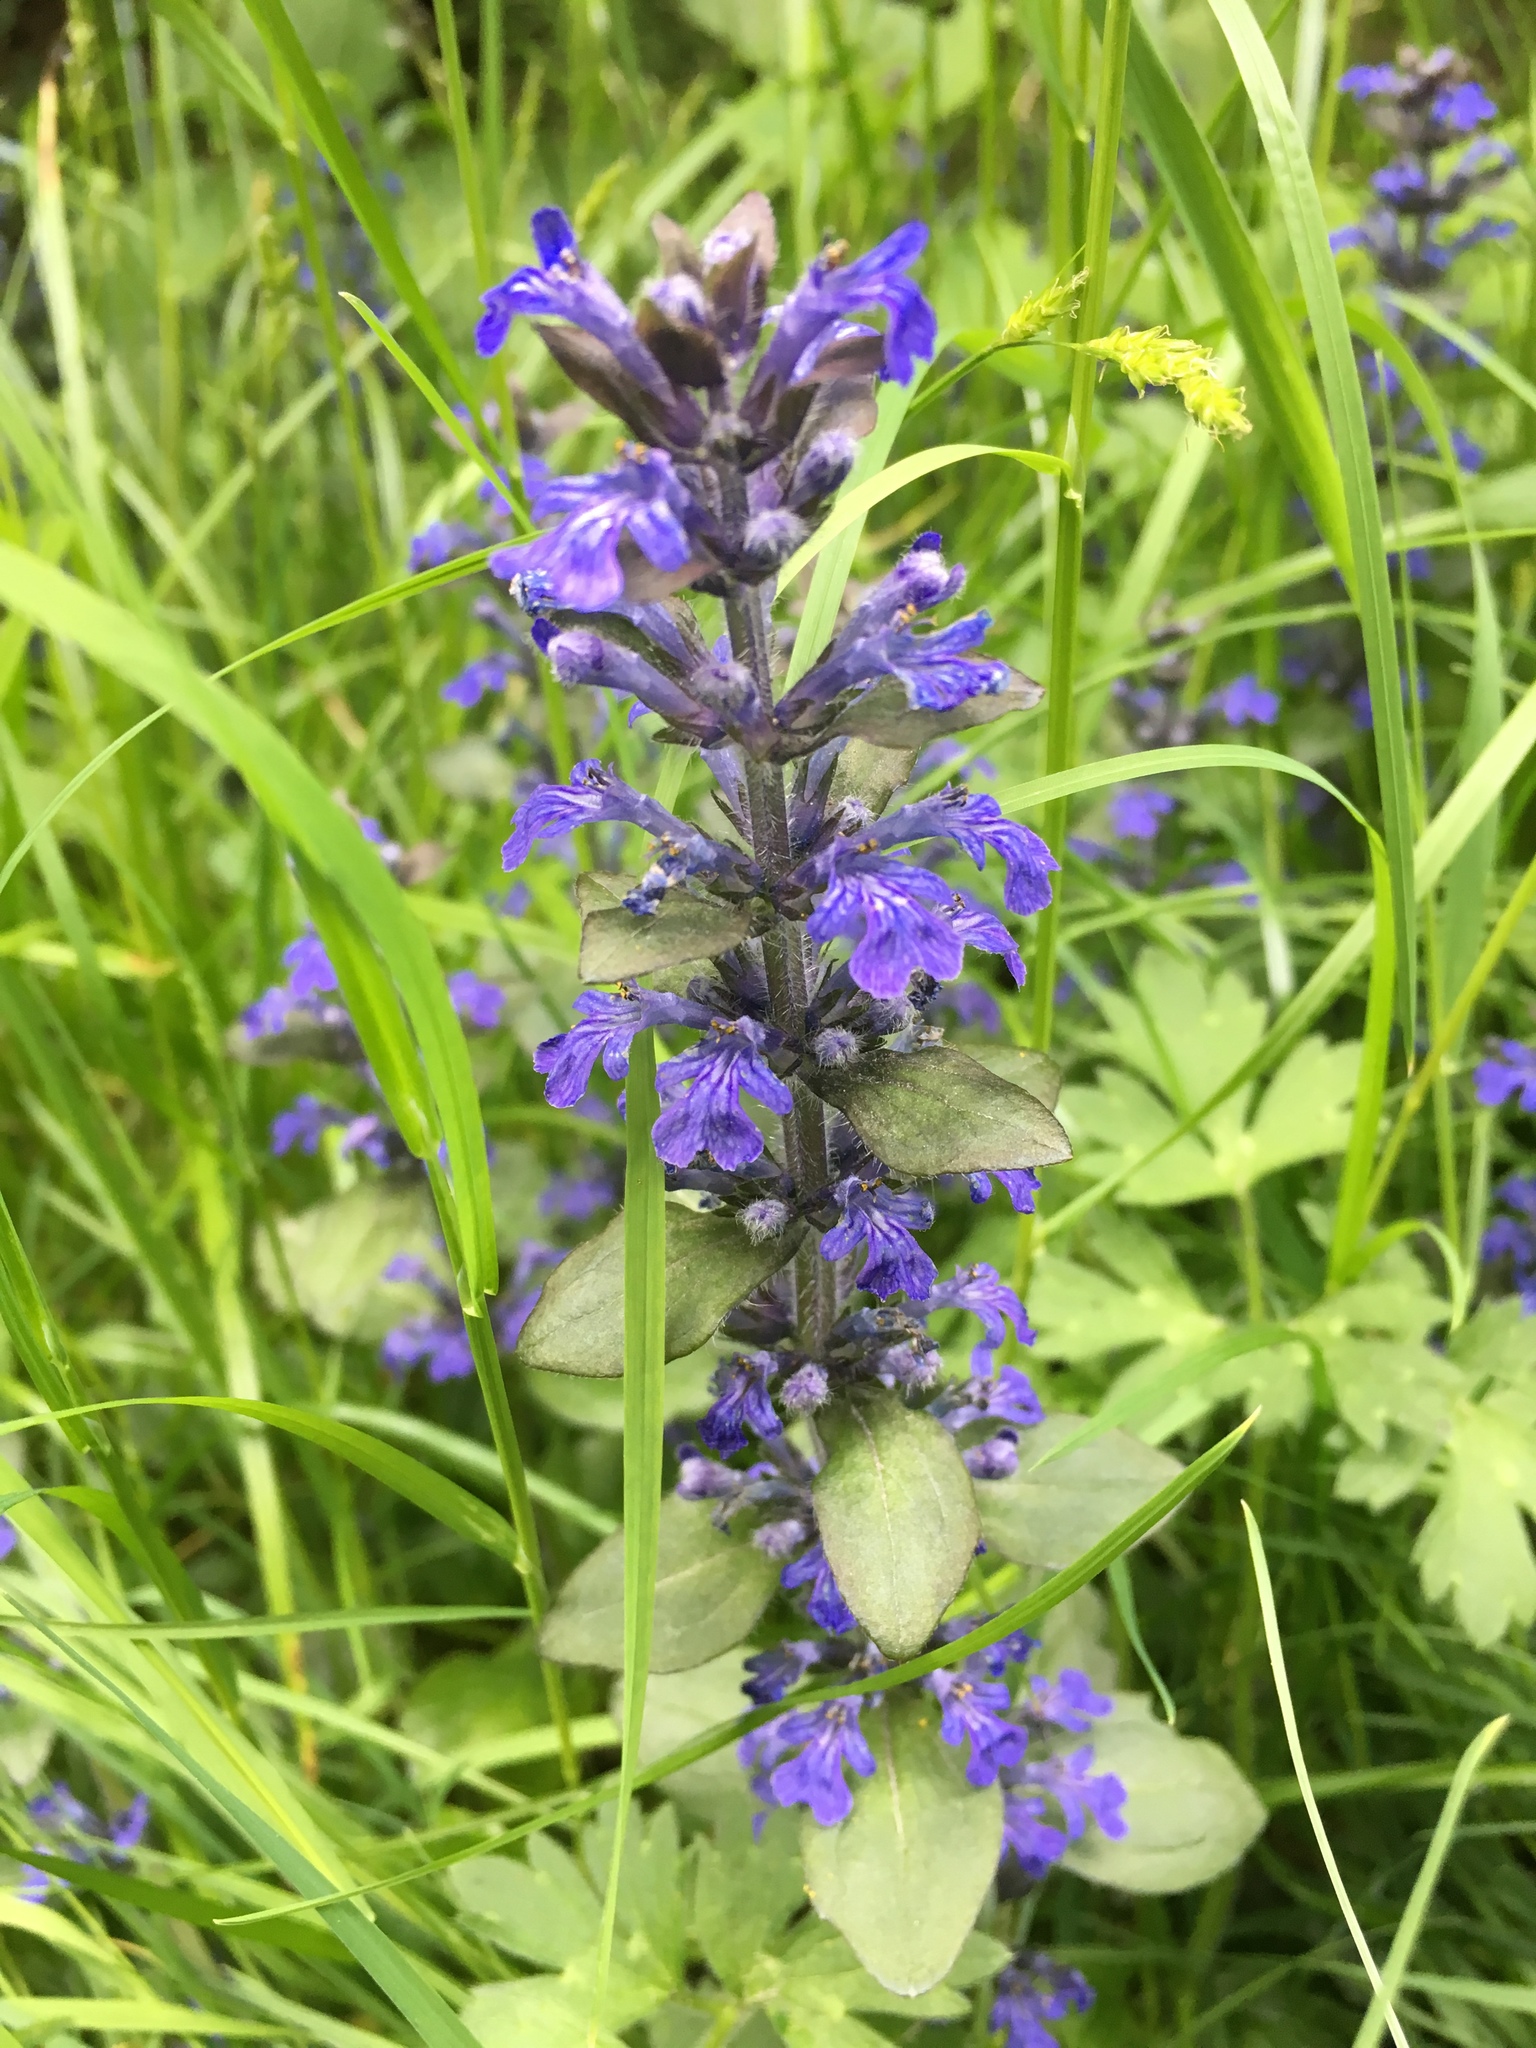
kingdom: Plantae
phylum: Tracheophyta
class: Magnoliopsida
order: Lamiales
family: Lamiaceae
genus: Ajuga
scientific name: Ajuga reptans
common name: Bugle
